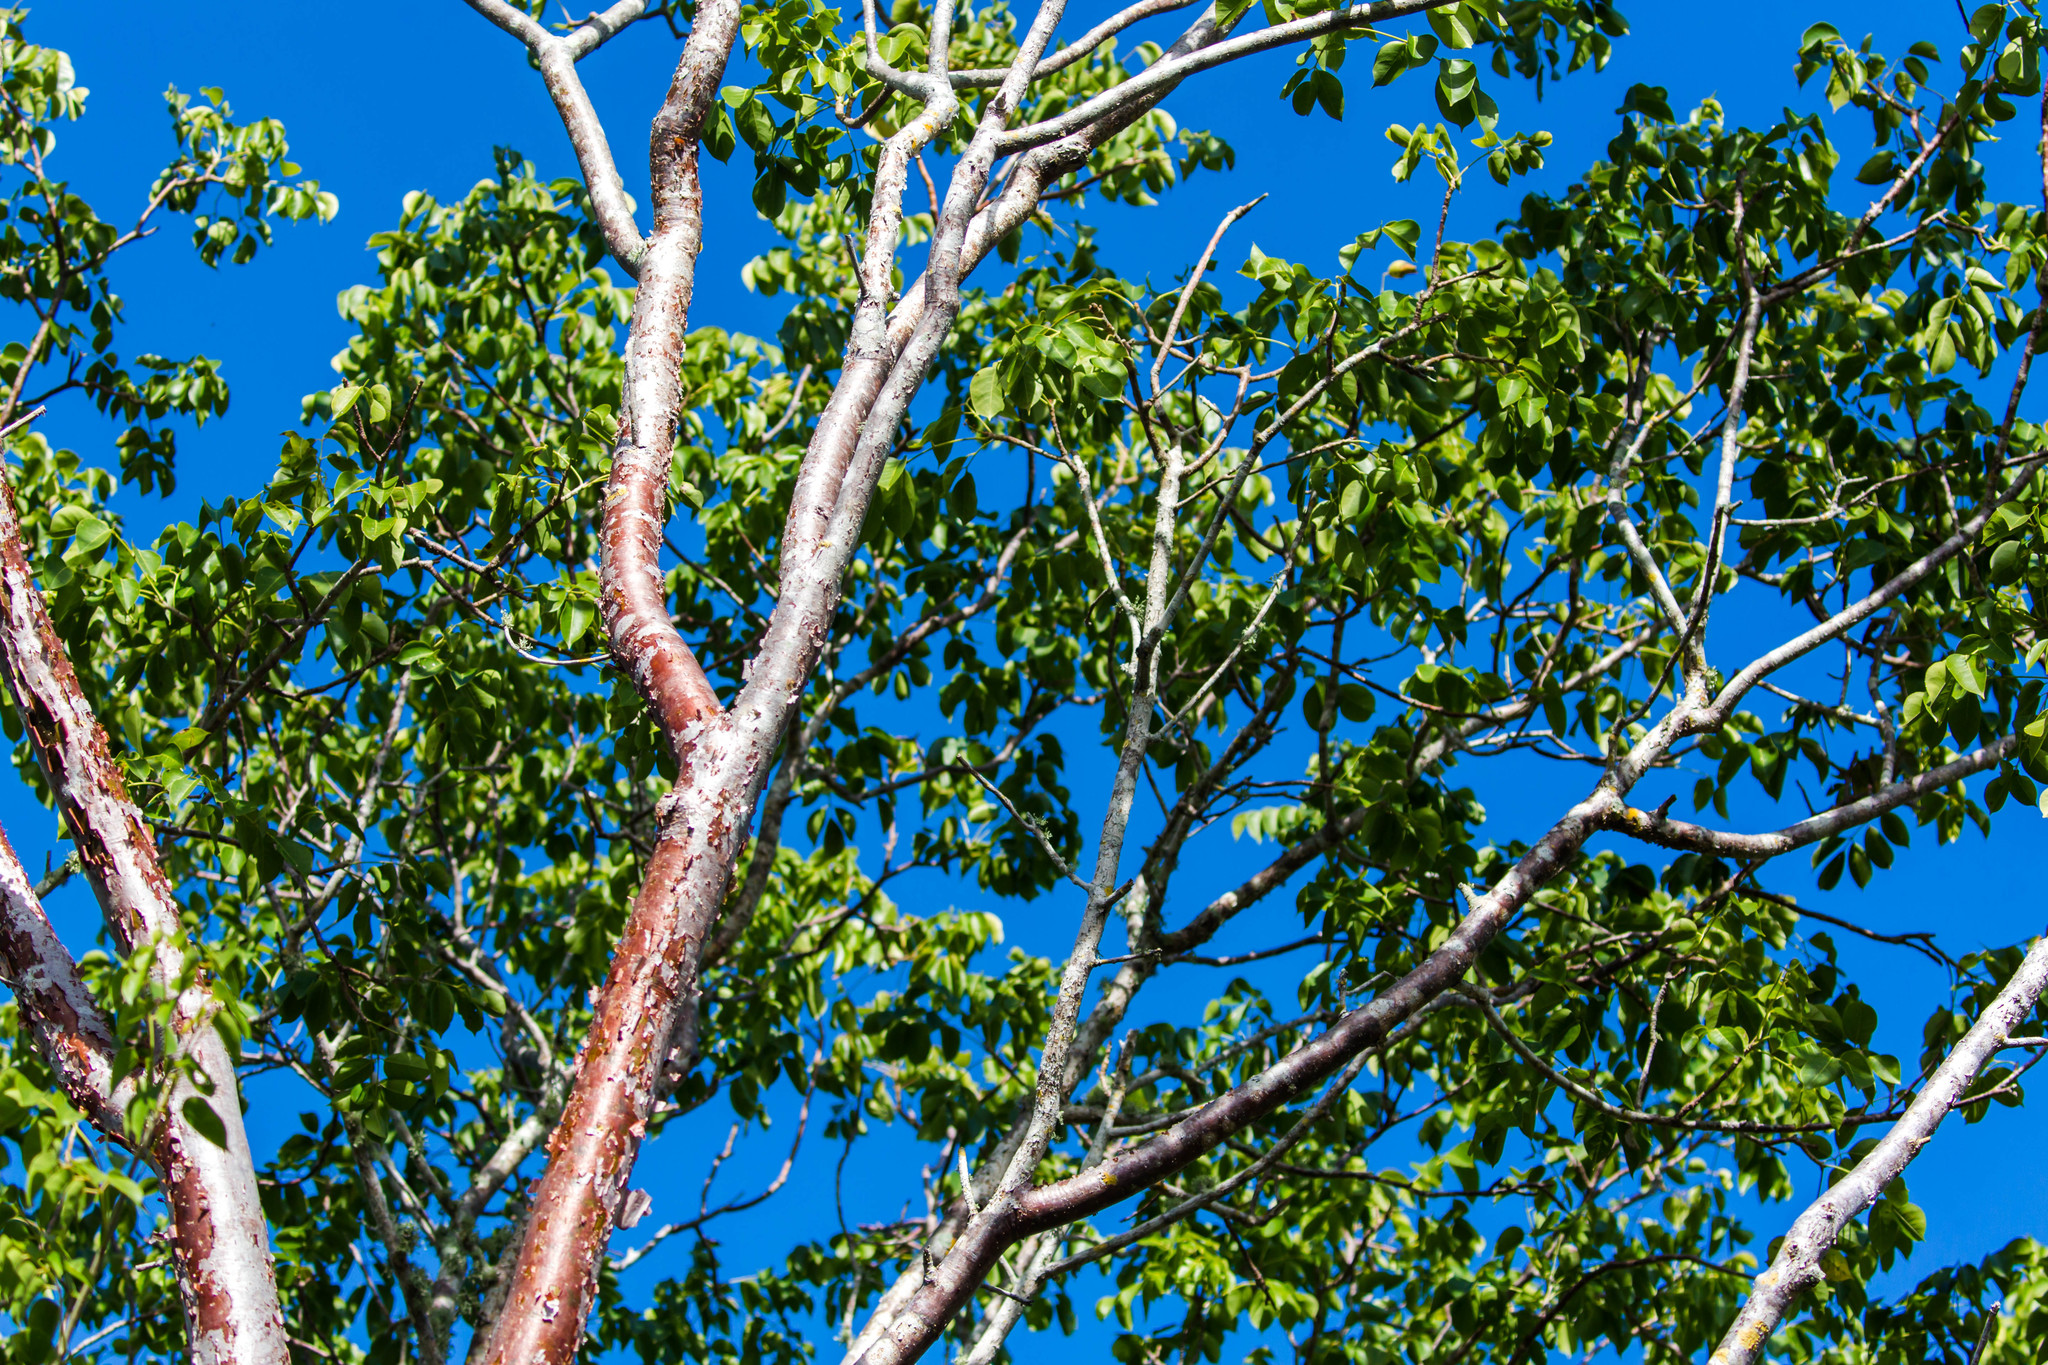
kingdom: Plantae
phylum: Tracheophyta
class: Magnoliopsida
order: Sapindales
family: Burseraceae
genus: Bursera
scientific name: Bursera simaruba
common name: Turpentine tree
